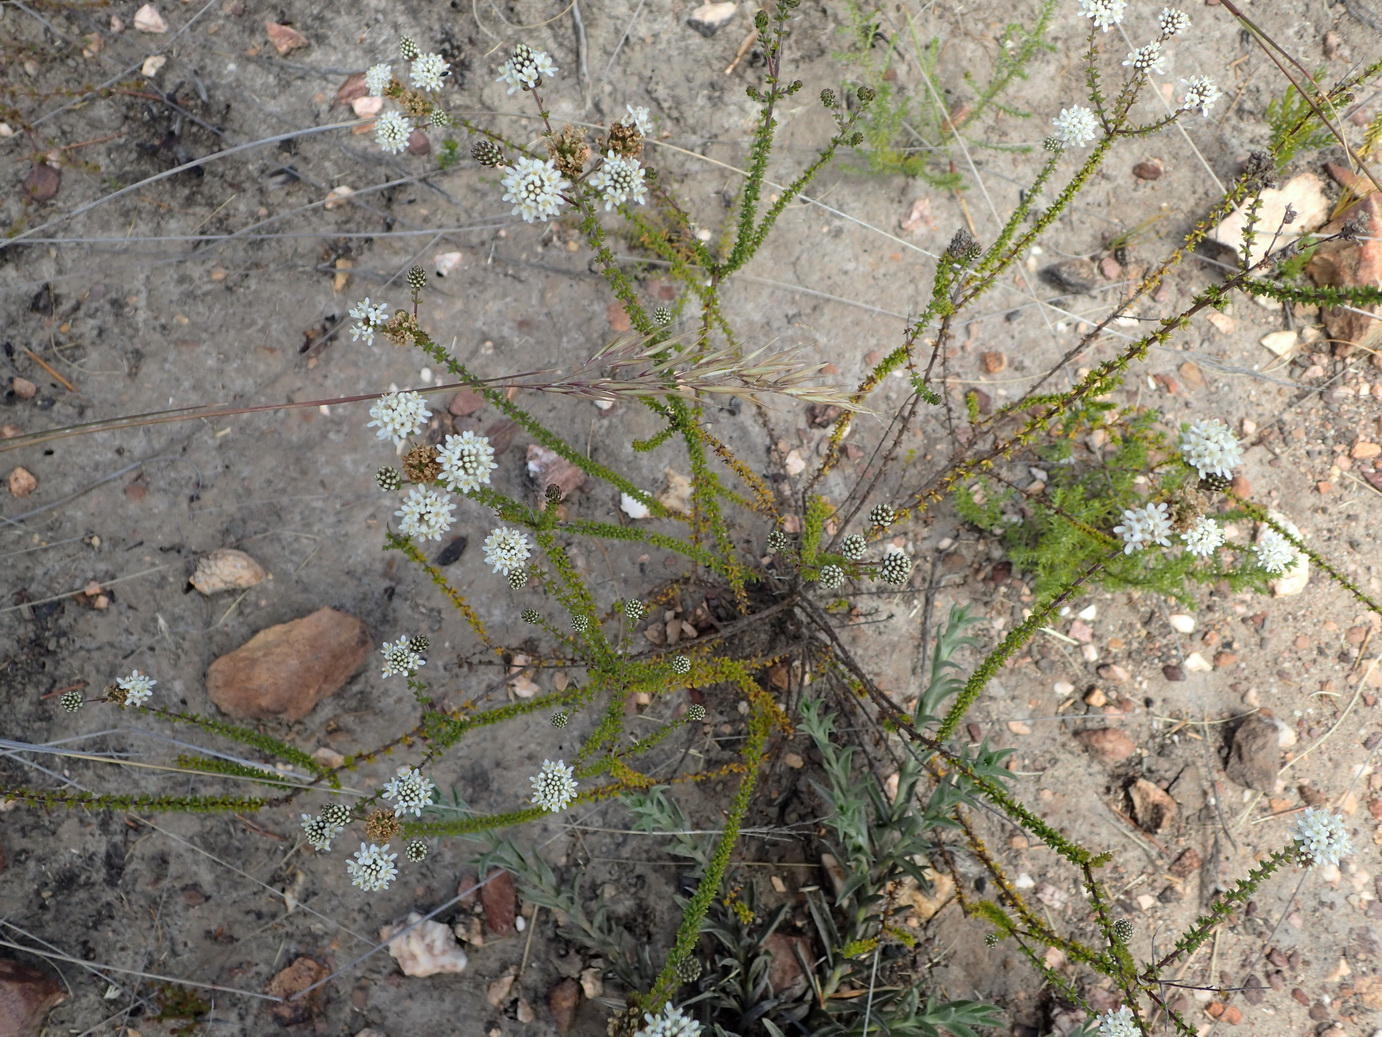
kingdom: Plantae
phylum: Tracheophyta
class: Magnoliopsida
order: Lamiales
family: Scrophulariaceae
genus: Selago
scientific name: Selago brevifolia
